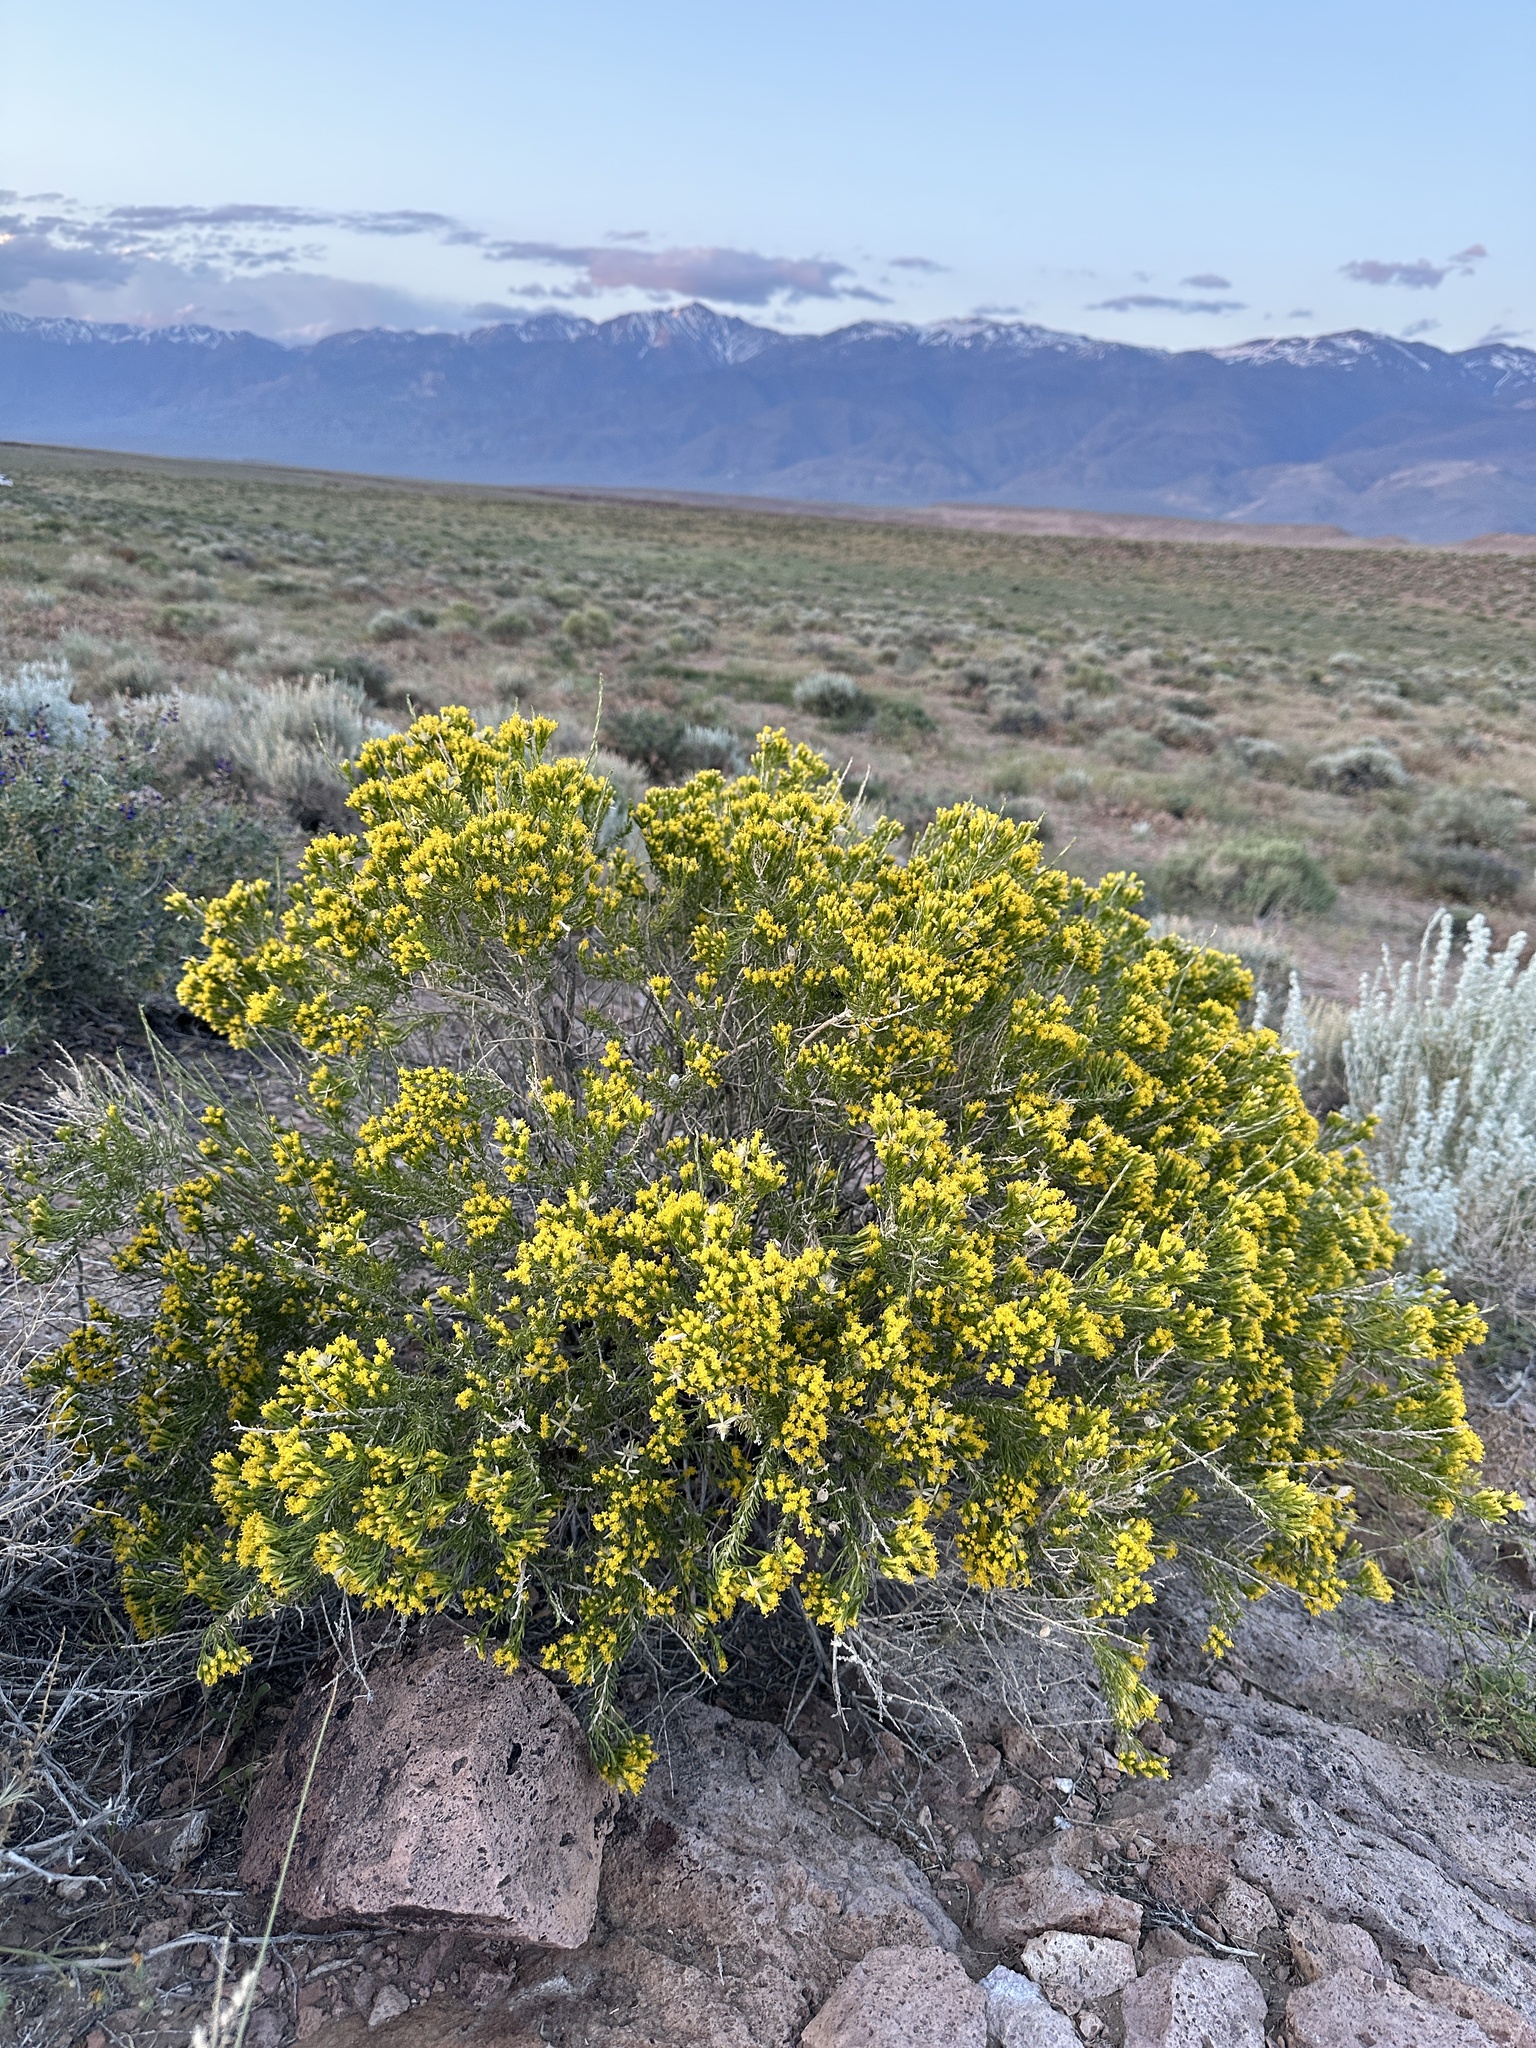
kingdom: Plantae
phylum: Tracheophyta
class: Magnoliopsida
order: Asterales
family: Asteraceae
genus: Tetradymia
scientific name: Tetradymia glabrata
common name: Smooth tetradymia
